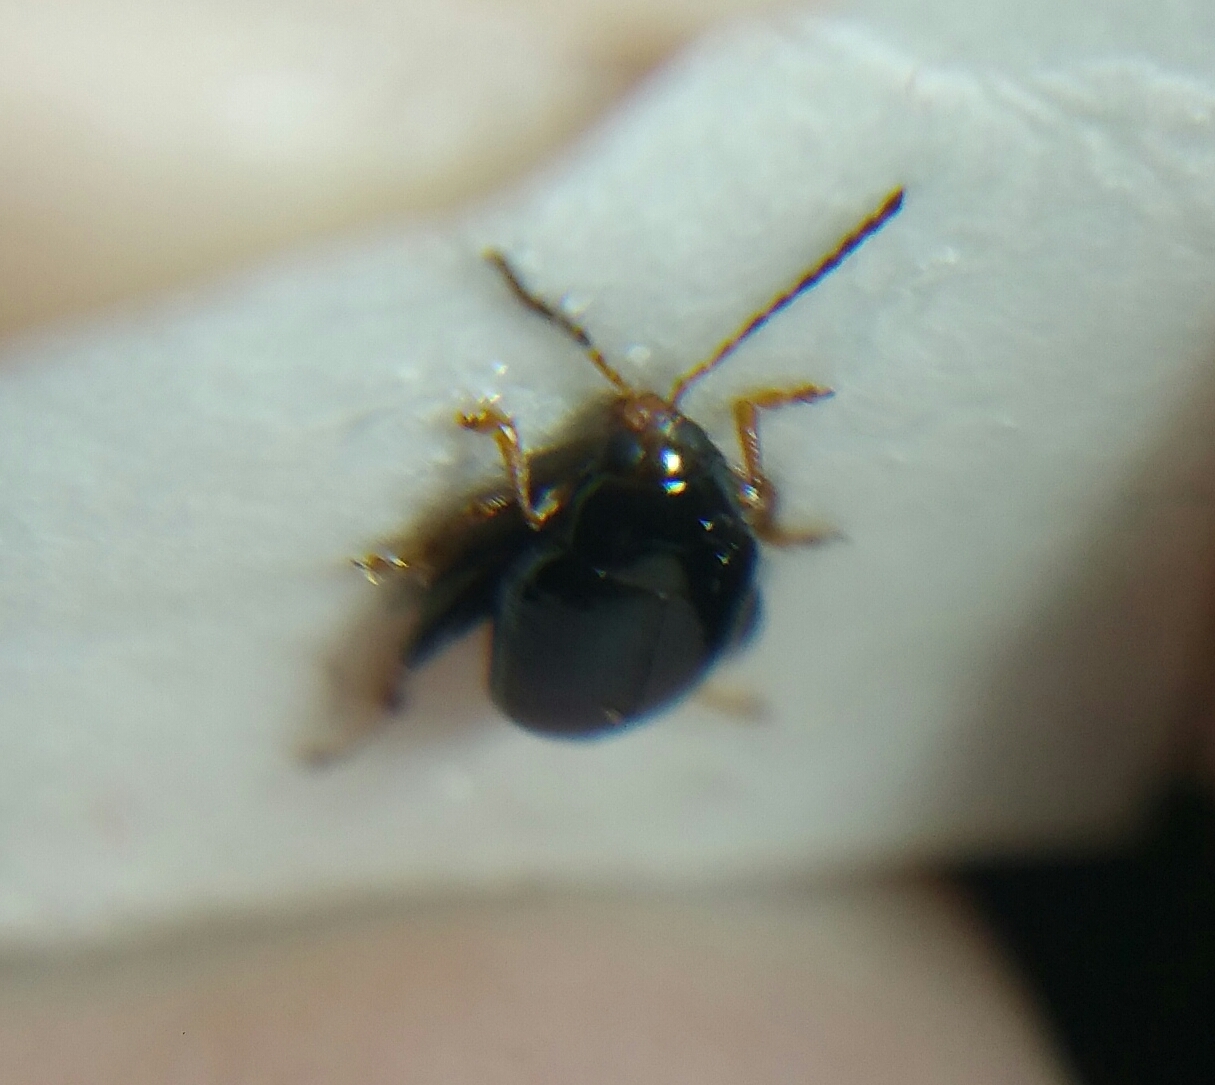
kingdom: Animalia
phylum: Arthropoda
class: Insecta
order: Coleoptera
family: Chrysomelidae
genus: Psylliodes
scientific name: Psylliodes chrysocephalus
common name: Cabbage-stem flea beetle
